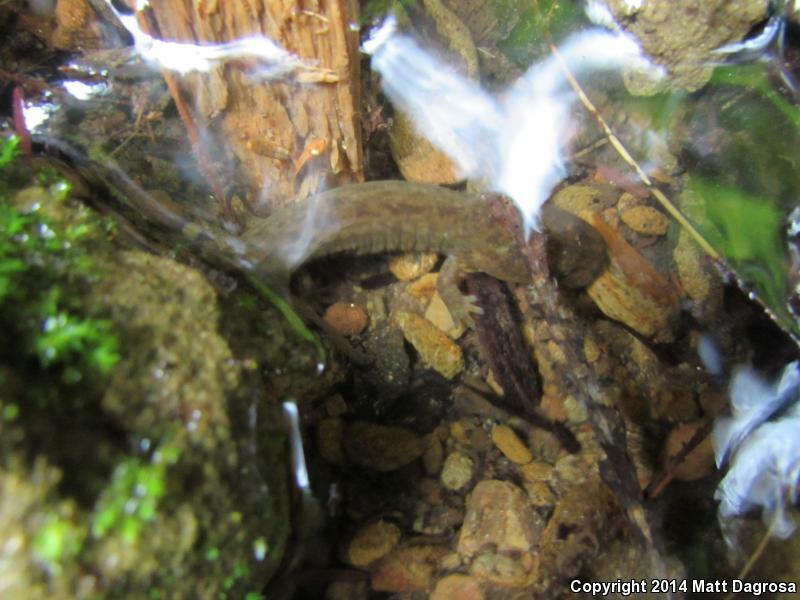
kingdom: Animalia
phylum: Chordata
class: Amphibia
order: Caudata
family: Ambystomatidae
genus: Dicamptodon
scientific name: Dicamptodon tenebrosus
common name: Coastal giant salamander
